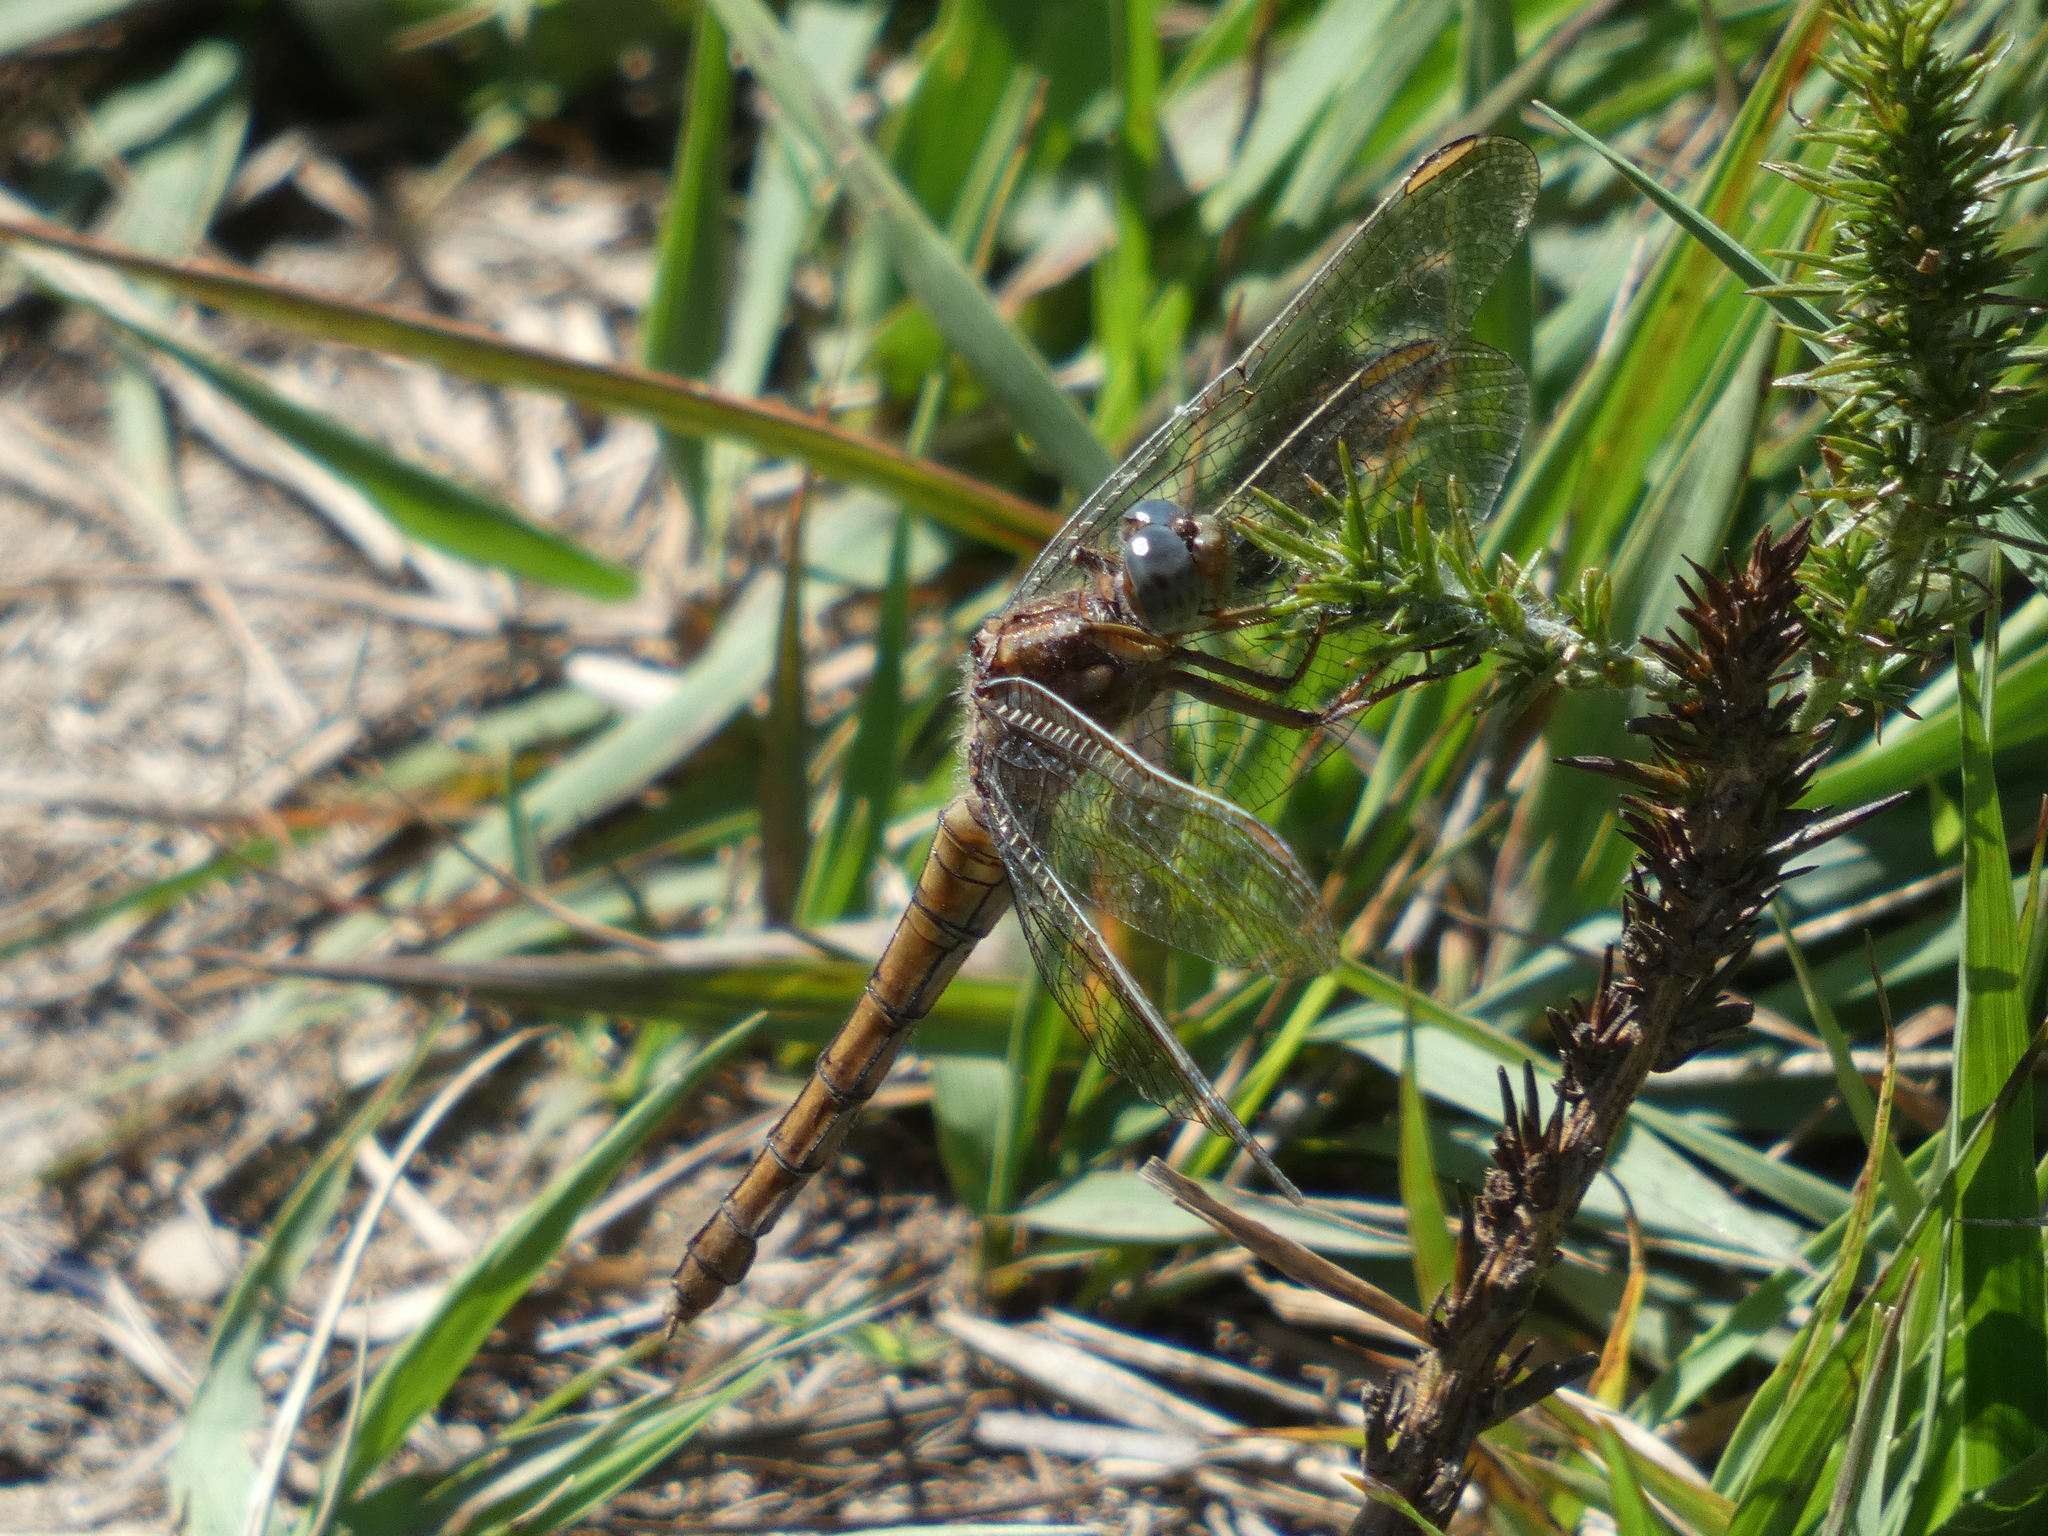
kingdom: Animalia
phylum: Arthropoda
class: Insecta
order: Odonata
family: Libellulidae
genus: Orthetrum
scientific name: Orthetrum coerulescens
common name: Keeled skimmer
